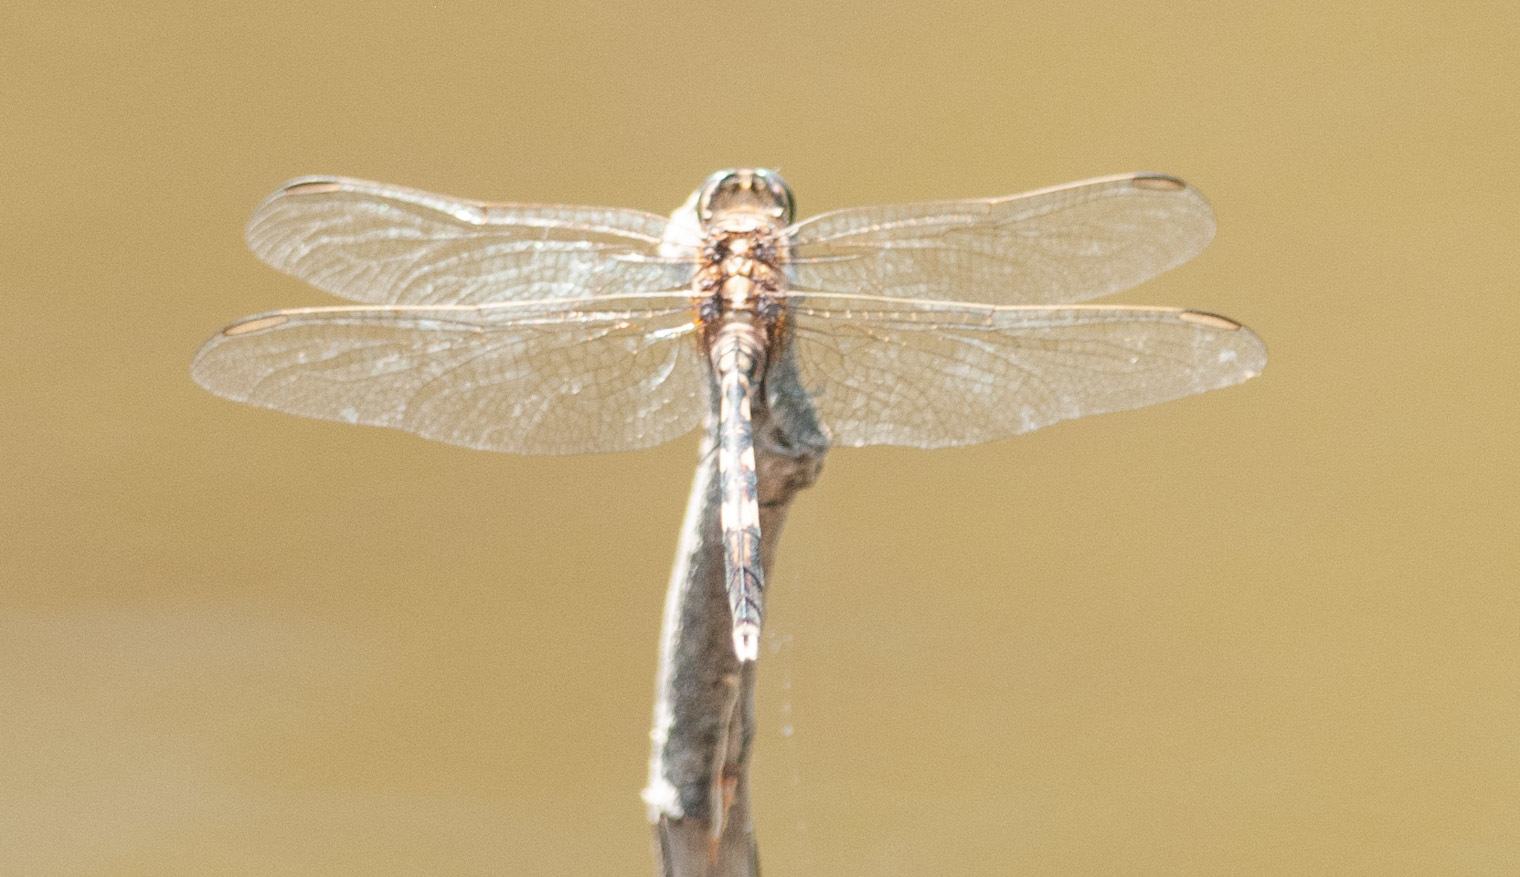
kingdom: Animalia
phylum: Arthropoda
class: Insecta
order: Odonata
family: Libellulidae
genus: Orthetrum
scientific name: Orthetrum sabina
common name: Slender skimmer
